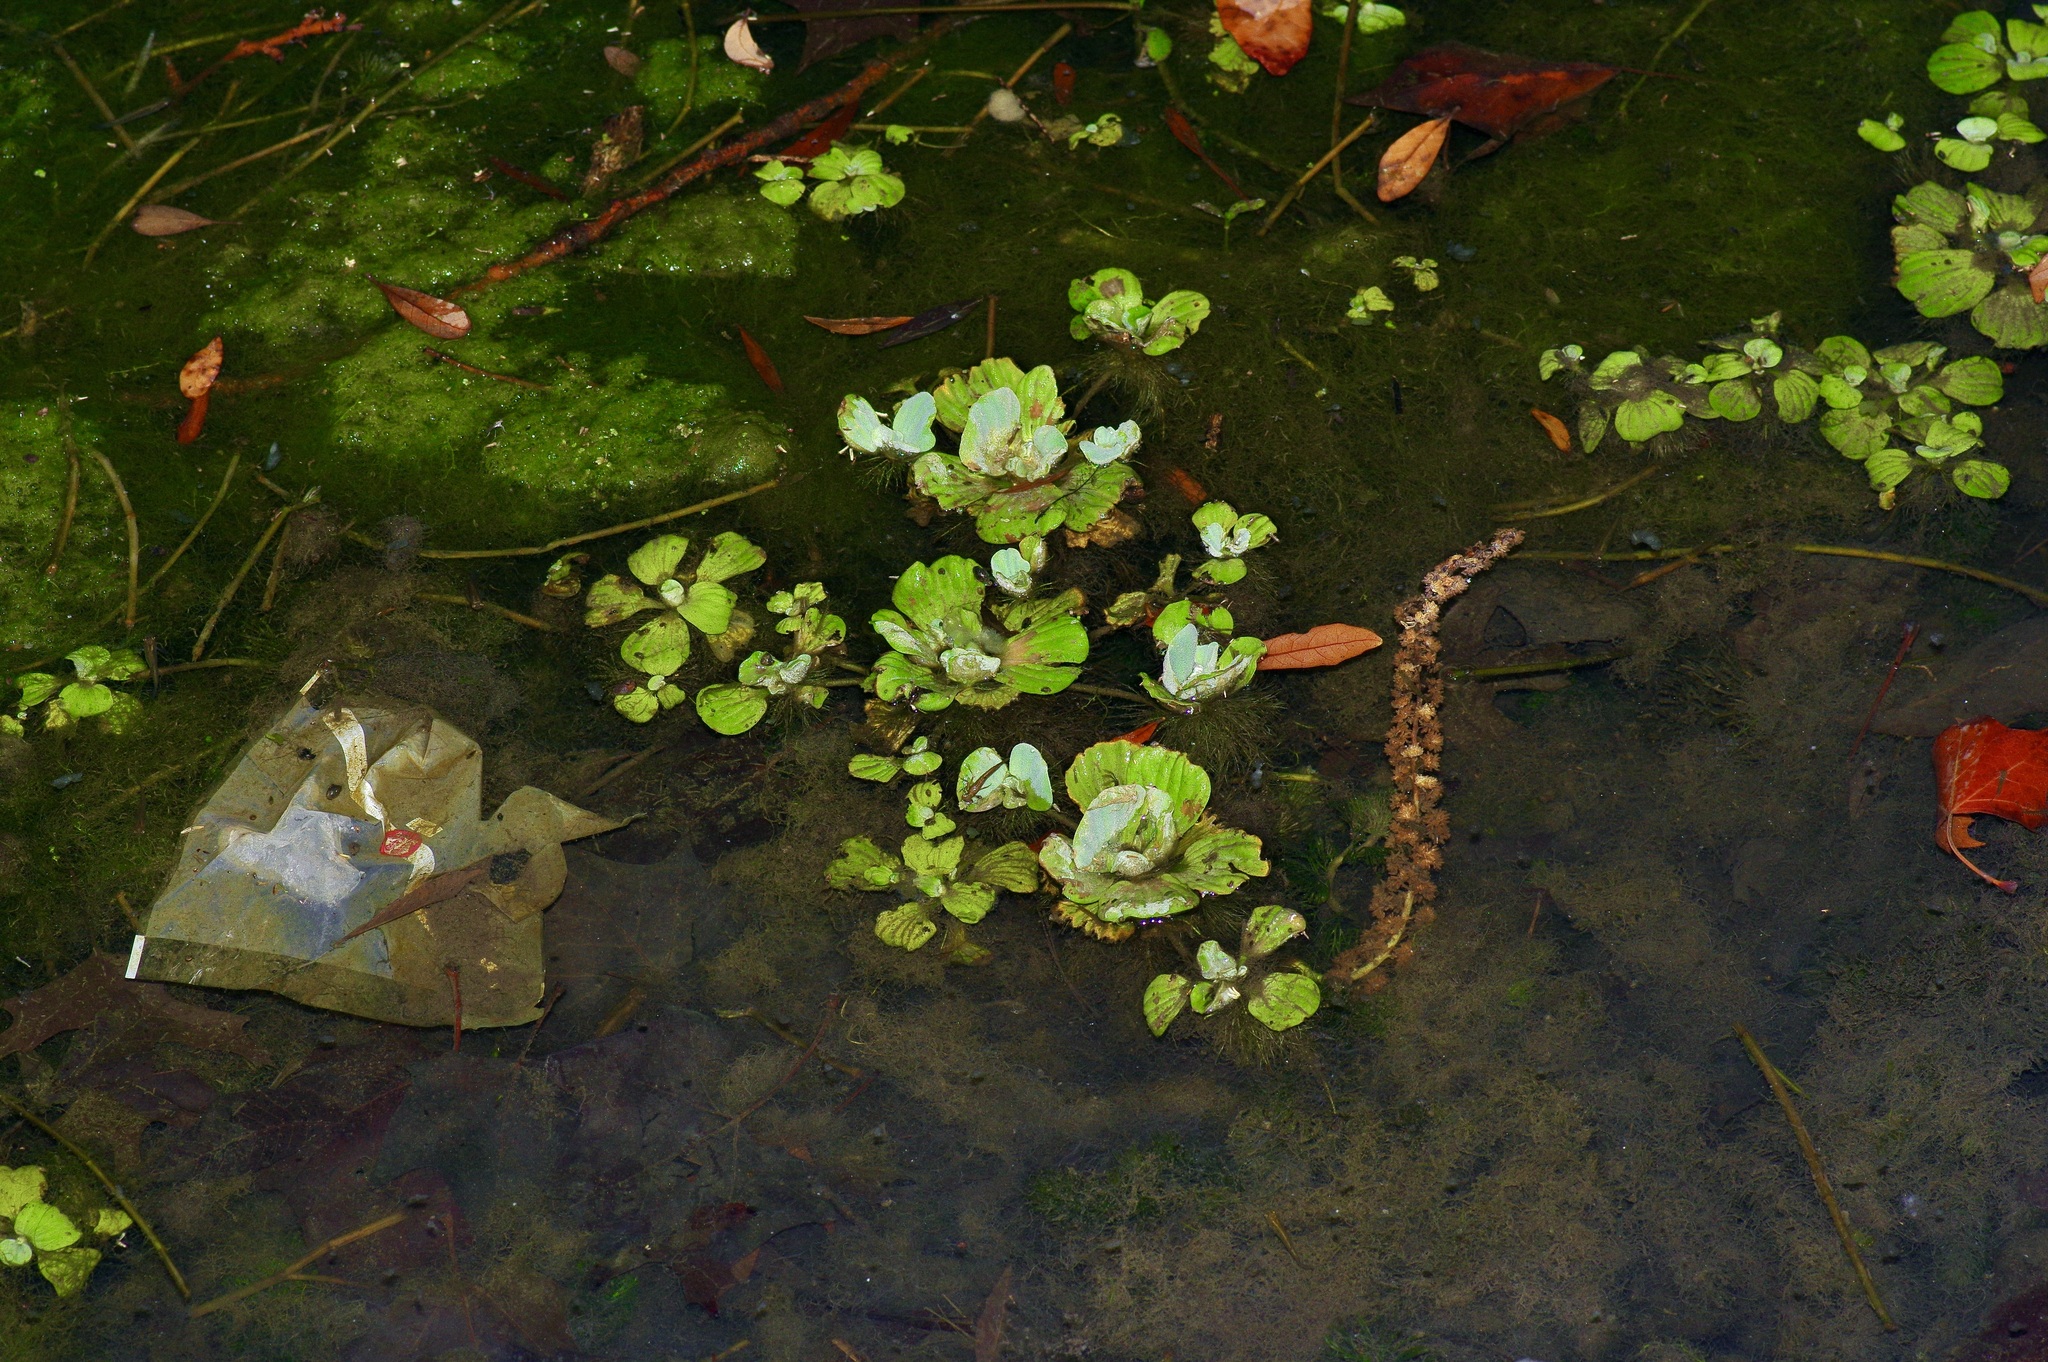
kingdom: Plantae
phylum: Tracheophyta
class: Liliopsida
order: Alismatales
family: Araceae
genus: Pistia
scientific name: Pistia stratiotes
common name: Water lettuce
